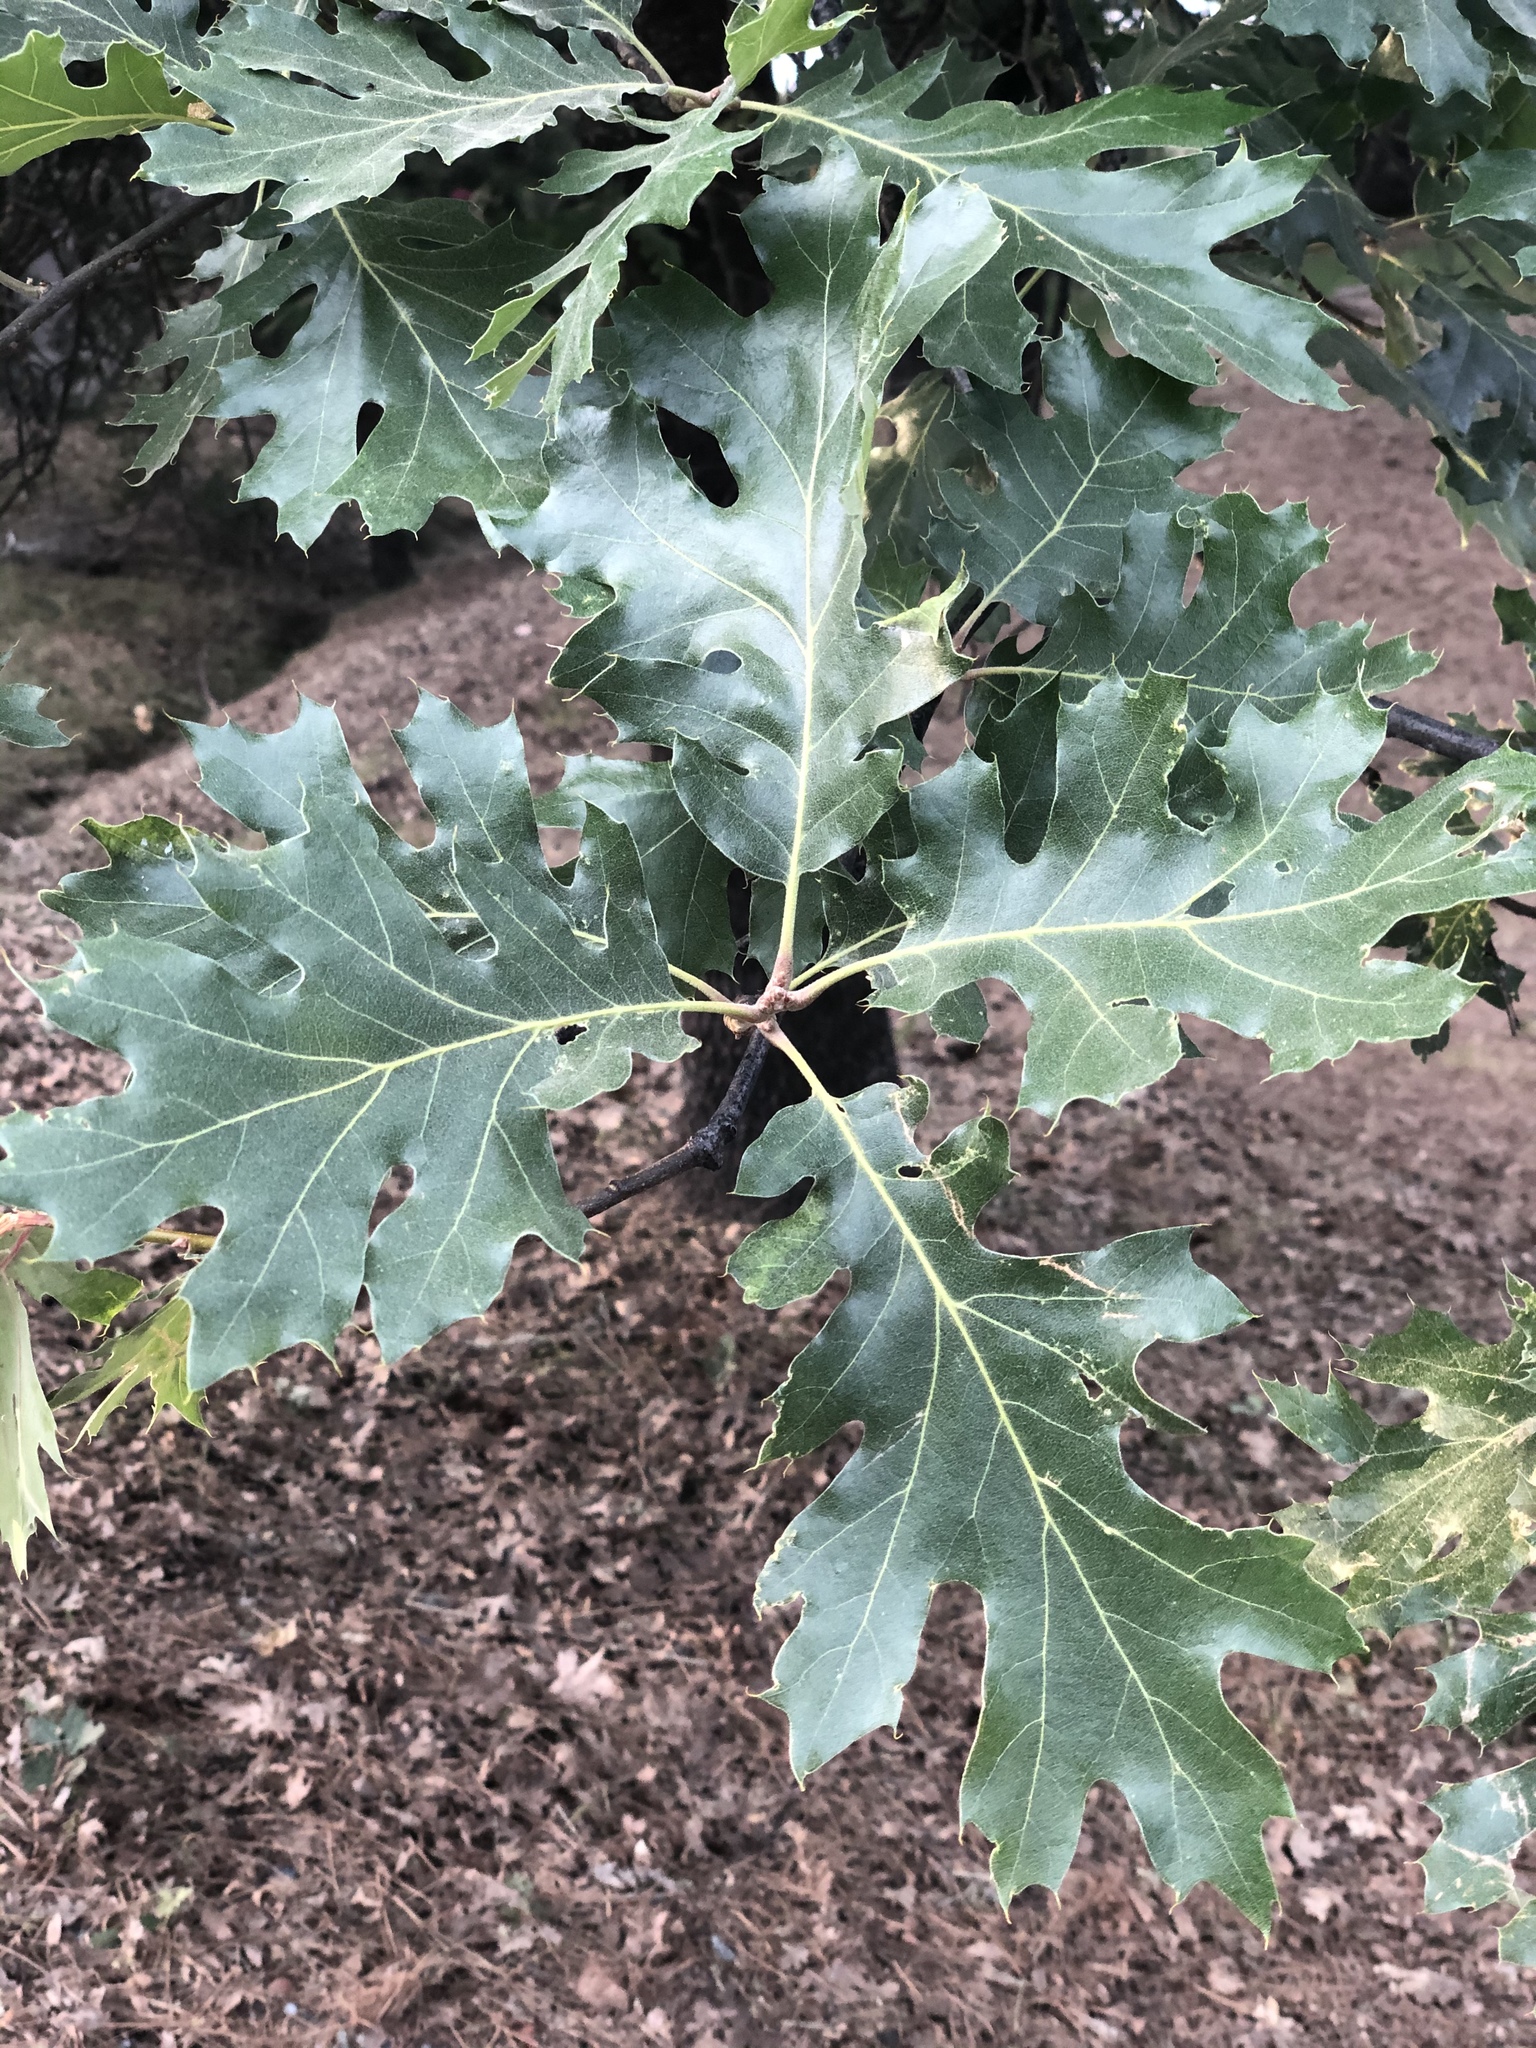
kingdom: Plantae
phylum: Tracheophyta
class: Magnoliopsida
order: Fagales
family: Fagaceae
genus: Quercus
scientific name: Quercus kelloggii
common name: California black oak
